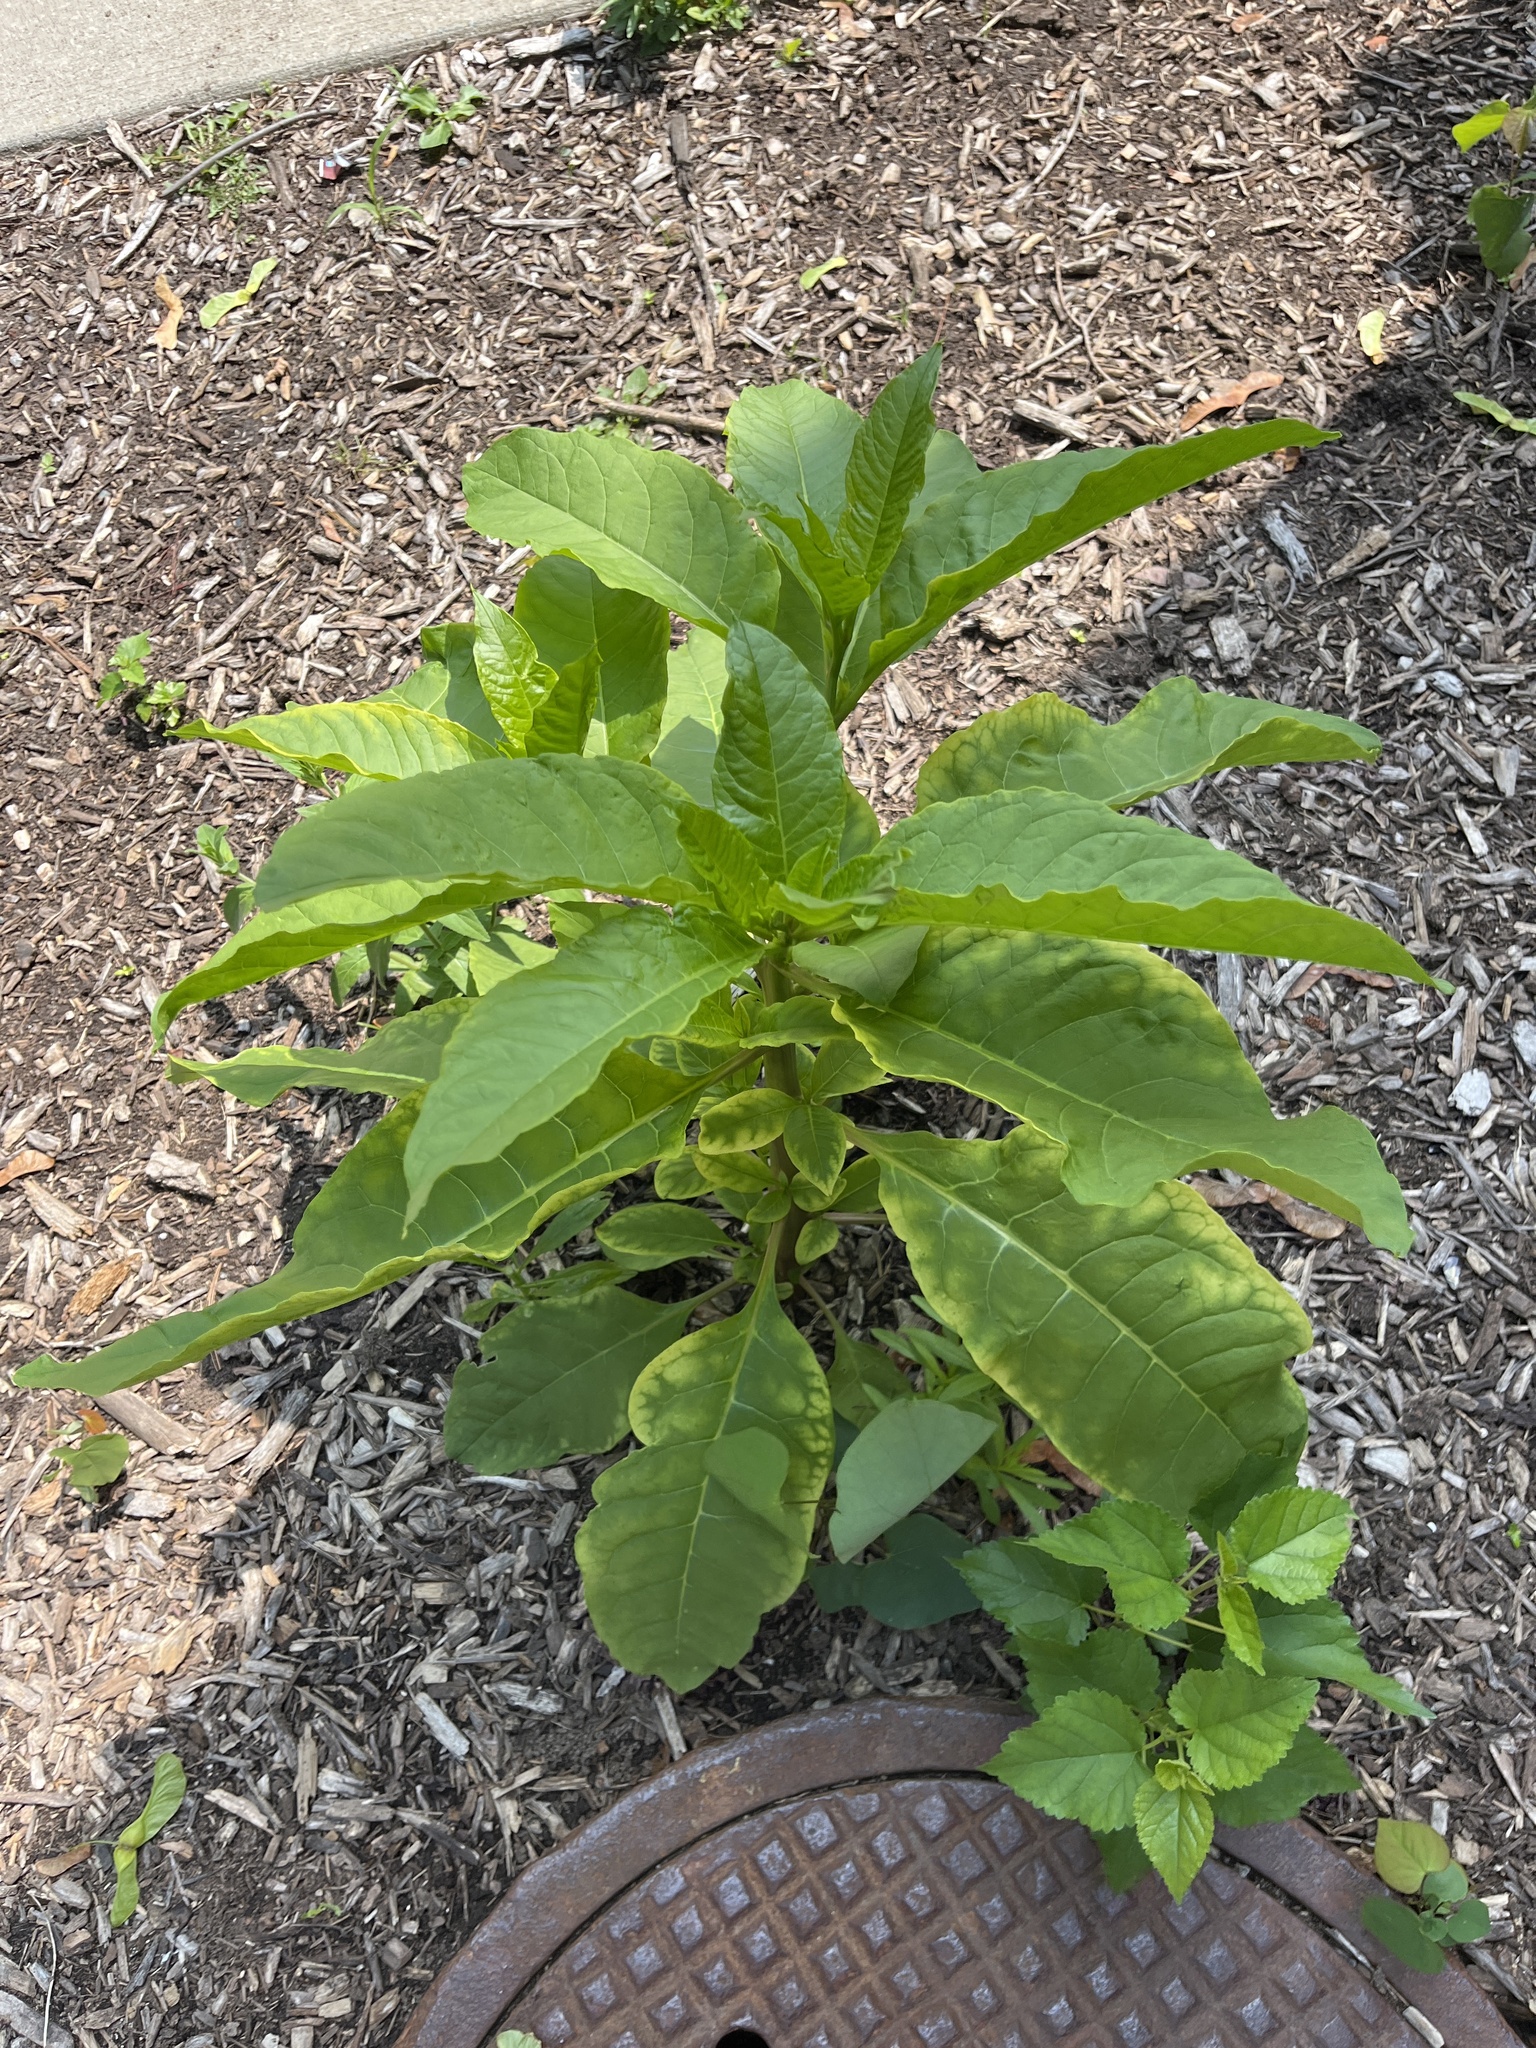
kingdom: Plantae
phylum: Tracheophyta
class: Magnoliopsida
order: Caryophyllales
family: Phytolaccaceae
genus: Phytolacca
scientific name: Phytolacca americana
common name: American pokeweed
